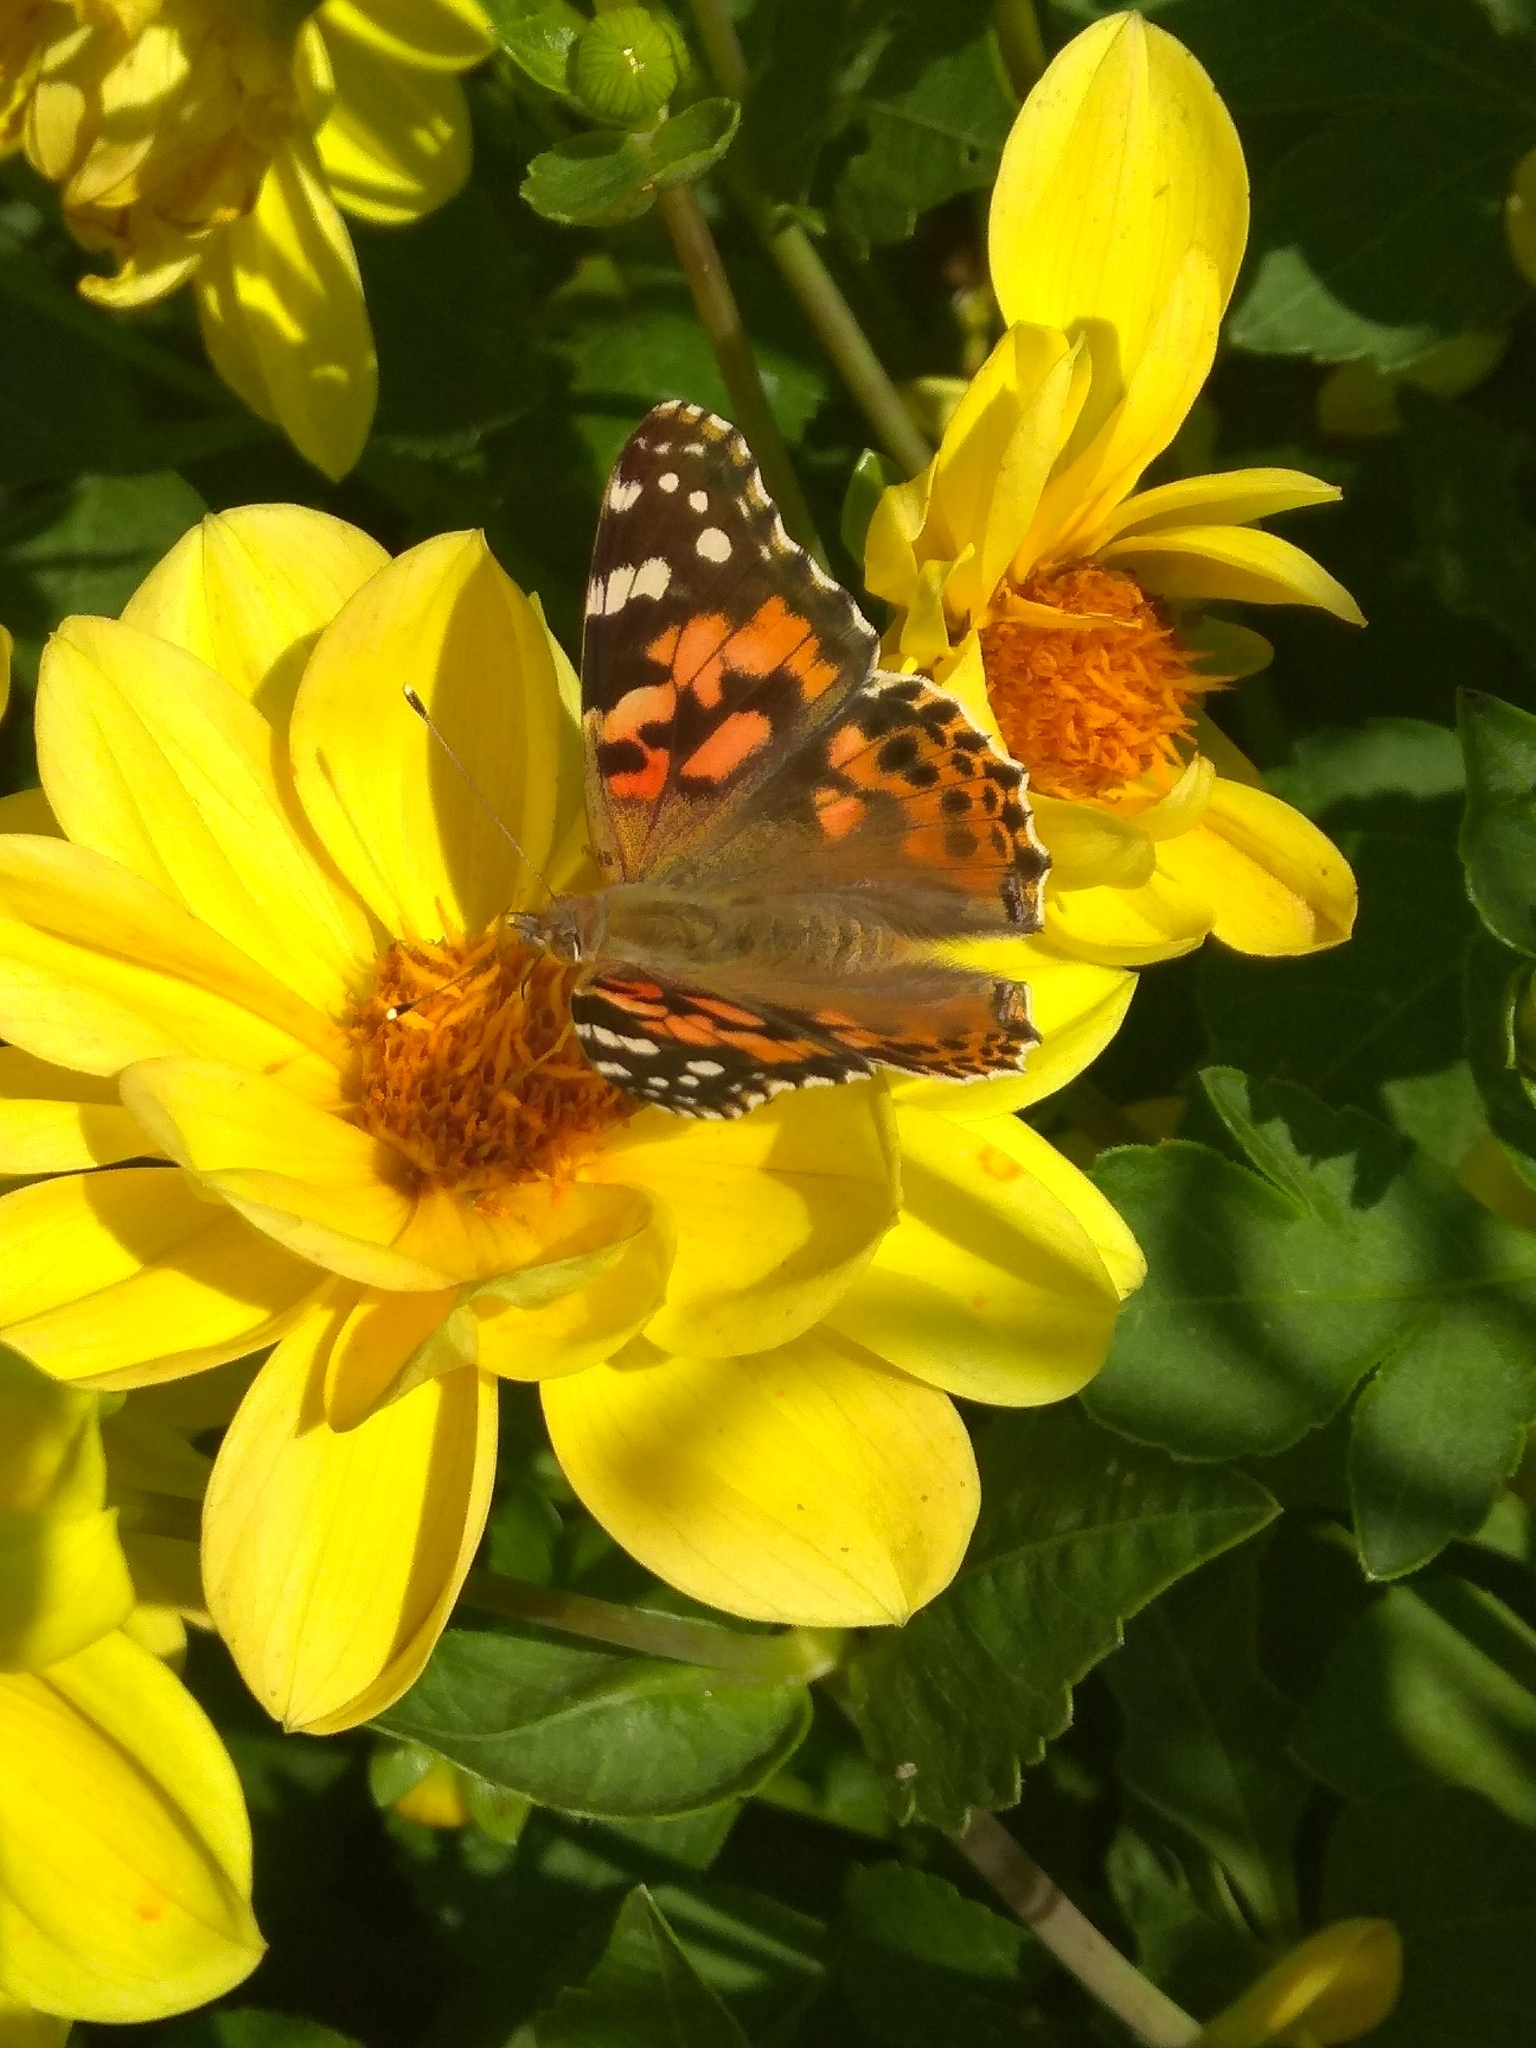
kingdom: Animalia
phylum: Arthropoda
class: Insecta
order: Lepidoptera
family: Nymphalidae
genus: Vanessa
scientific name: Vanessa cardui
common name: Painted lady
